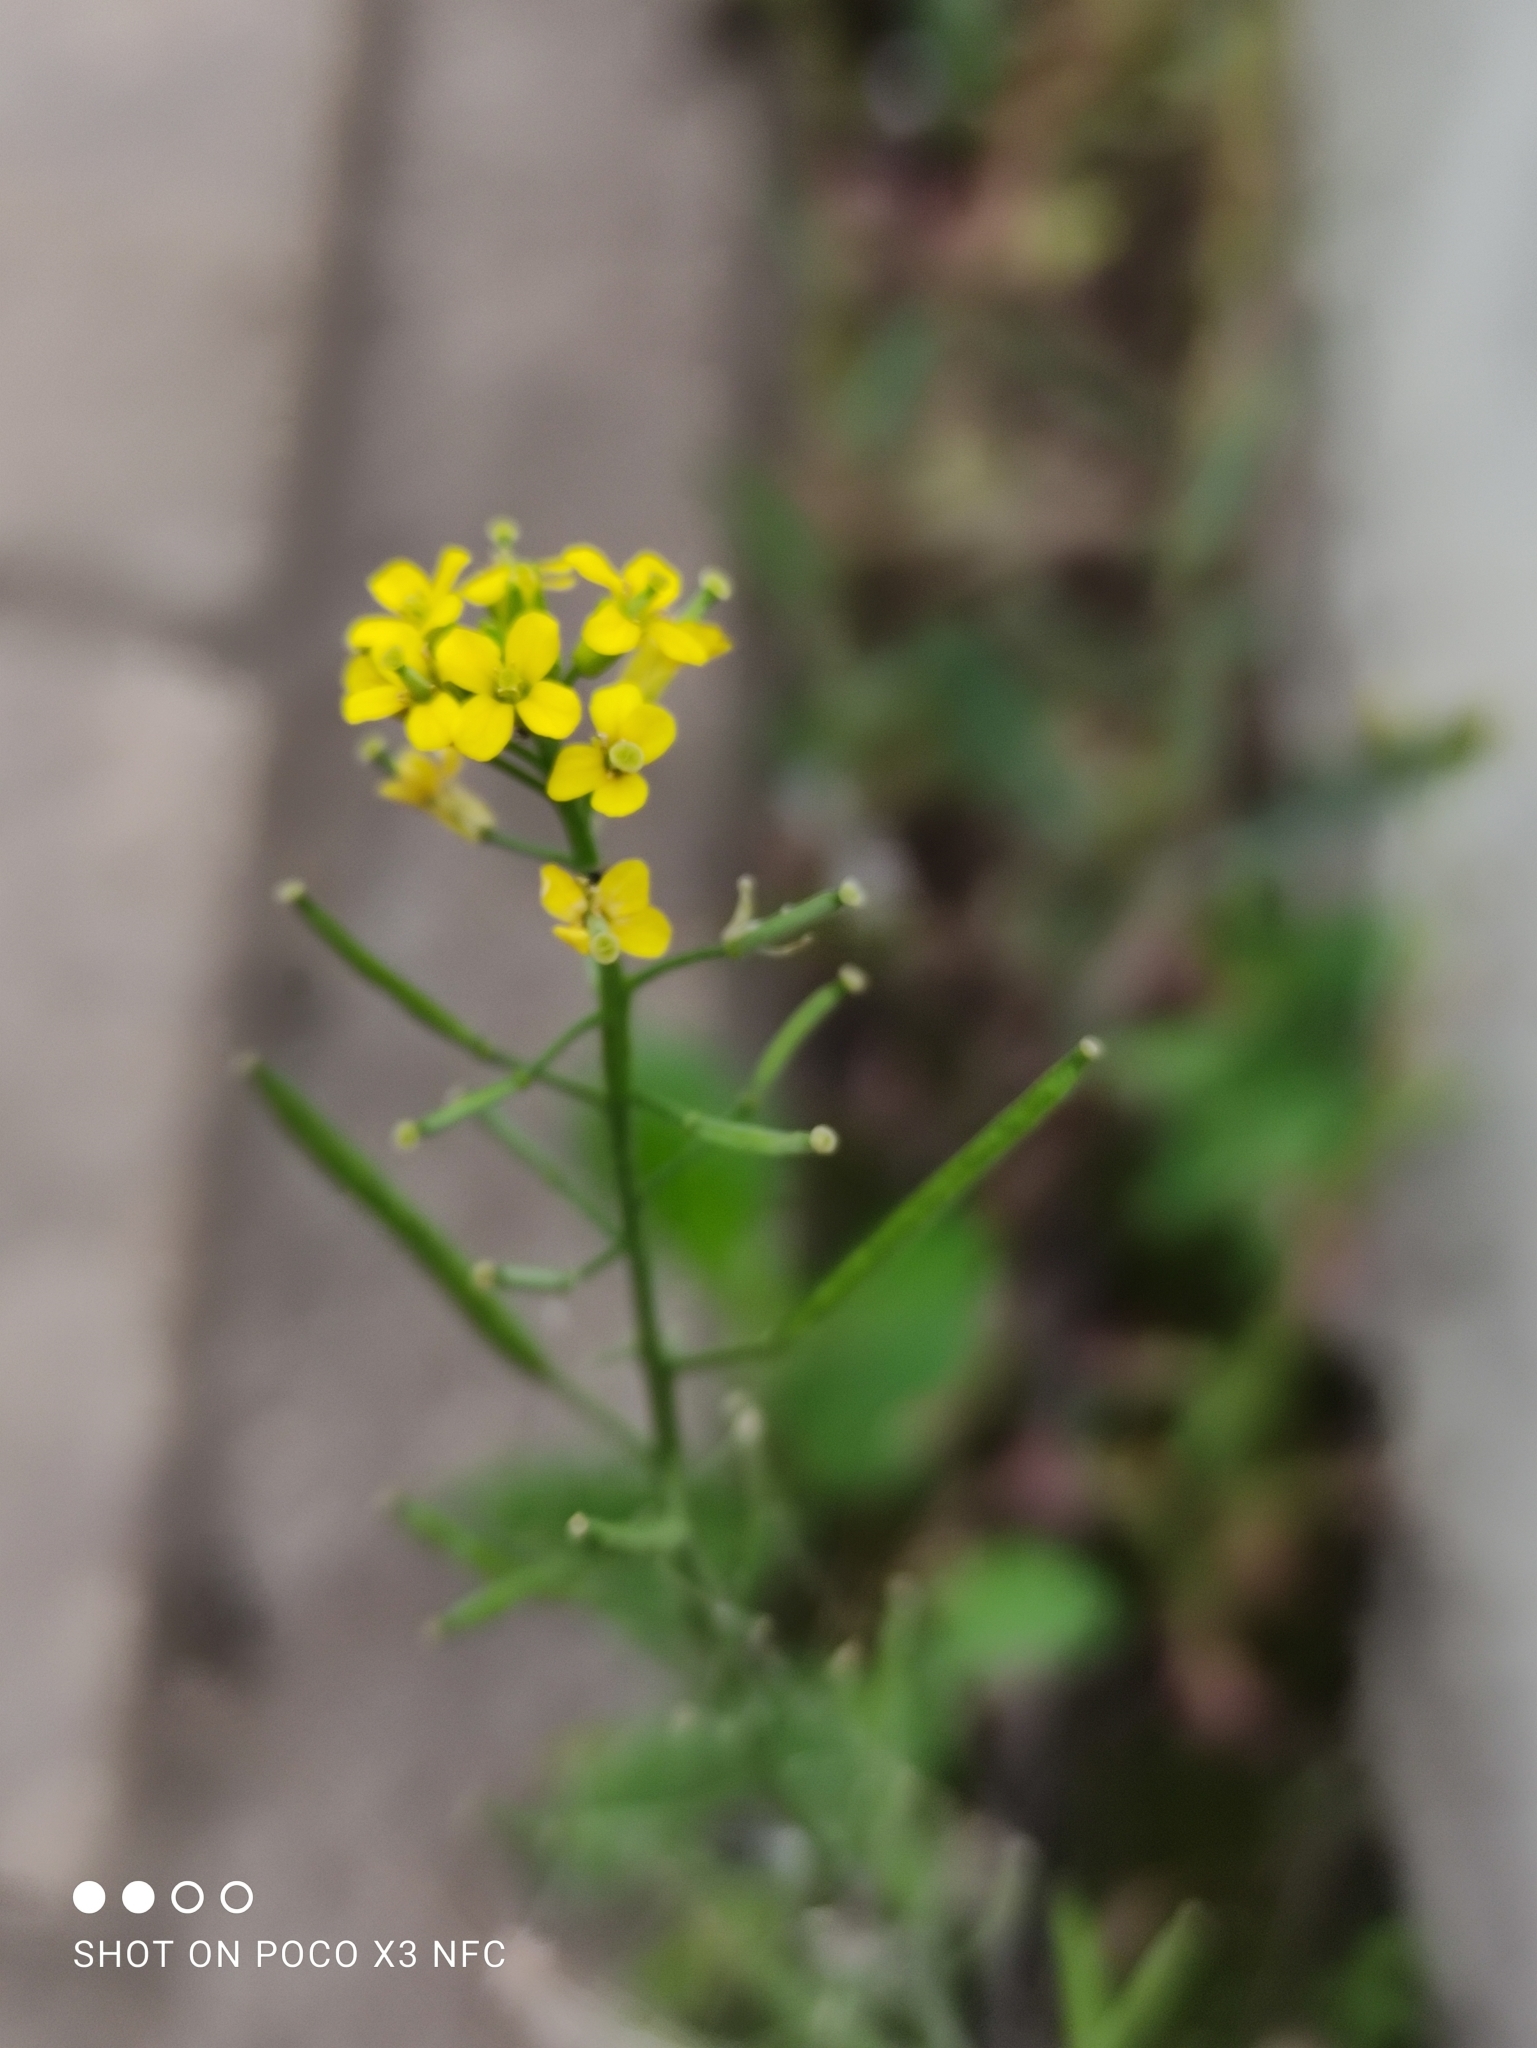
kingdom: Plantae
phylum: Tracheophyta
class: Magnoliopsida
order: Brassicales
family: Brassicaceae
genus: Erysimum
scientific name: Erysimum cheiranthoides
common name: Treacle mustard
